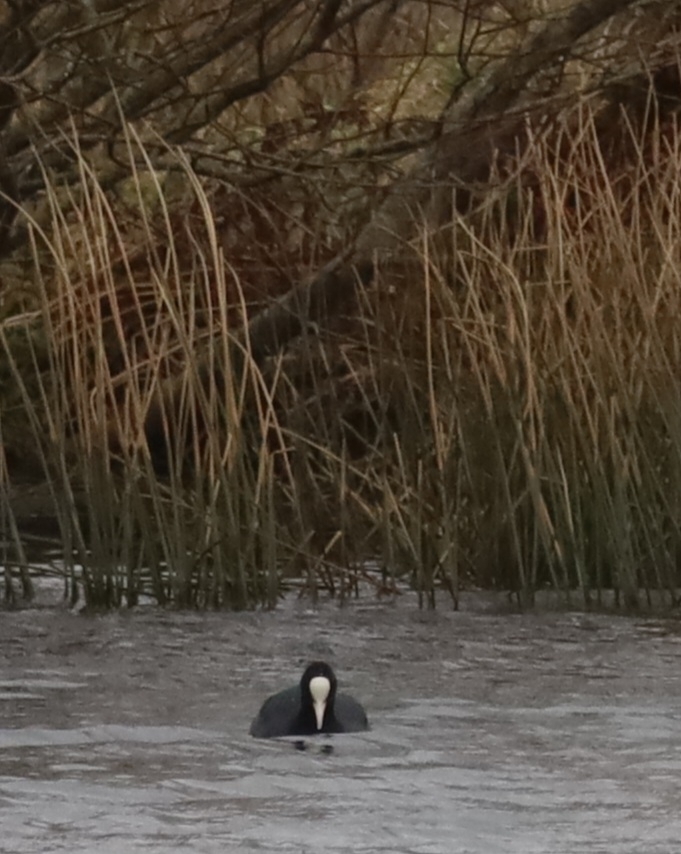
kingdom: Animalia
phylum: Chordata
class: Aves
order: Gruiformes
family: Rallidae
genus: Fulica
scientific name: Fulica atra
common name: Eurasian coot
